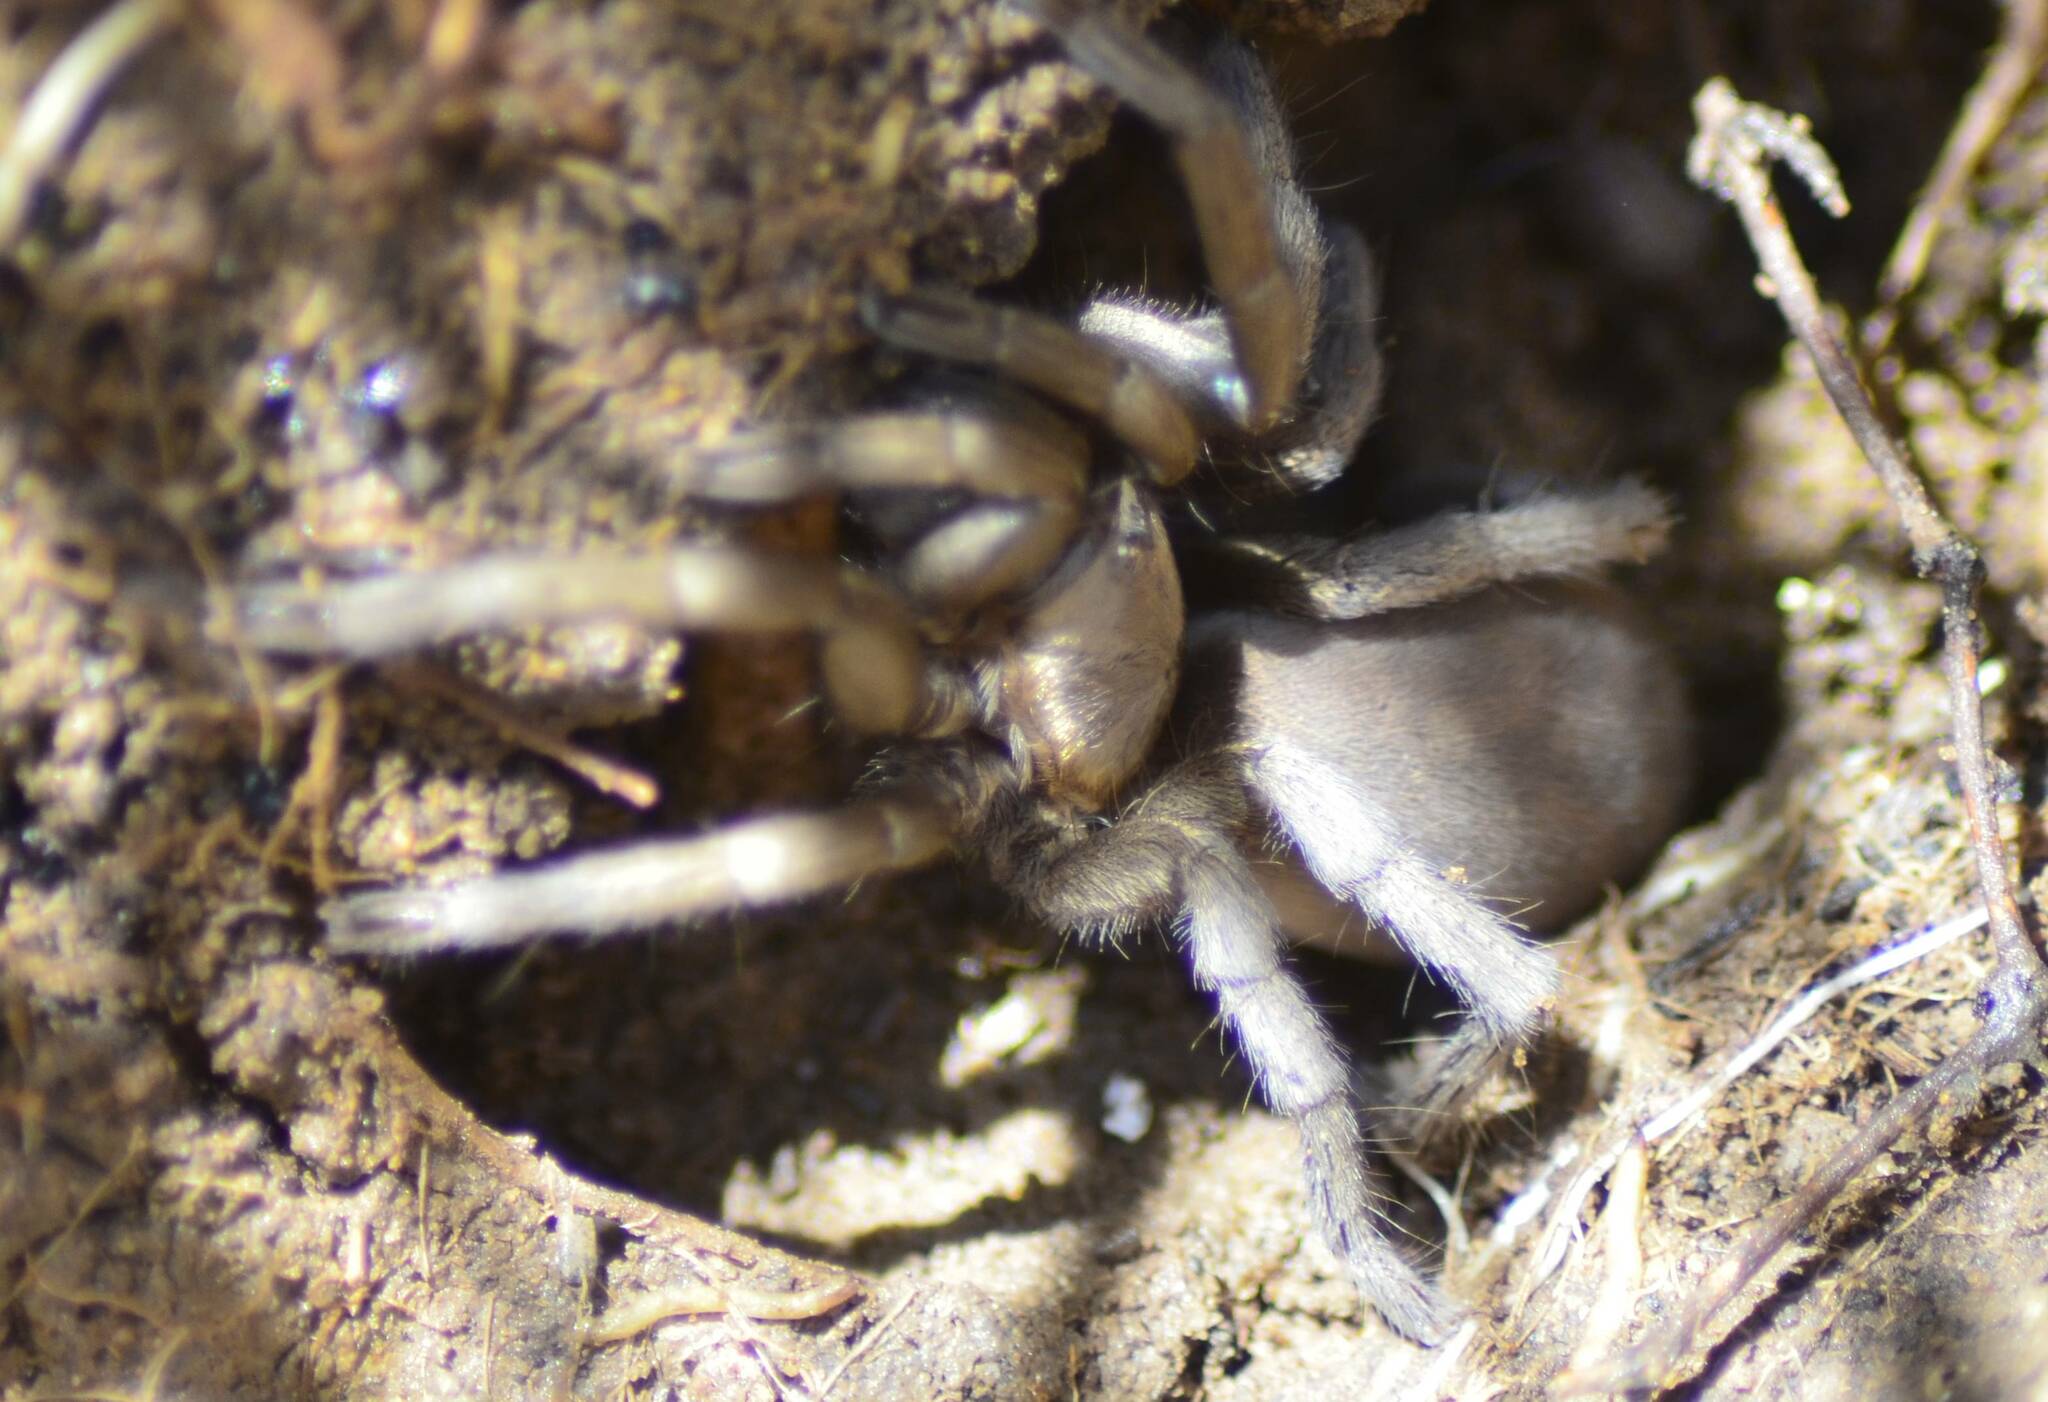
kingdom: Animalia
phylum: Arthropoda
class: Arachnida
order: Araneae
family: Theraphosidae
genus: Ischnocolus
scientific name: Ischnocolus valentinus
